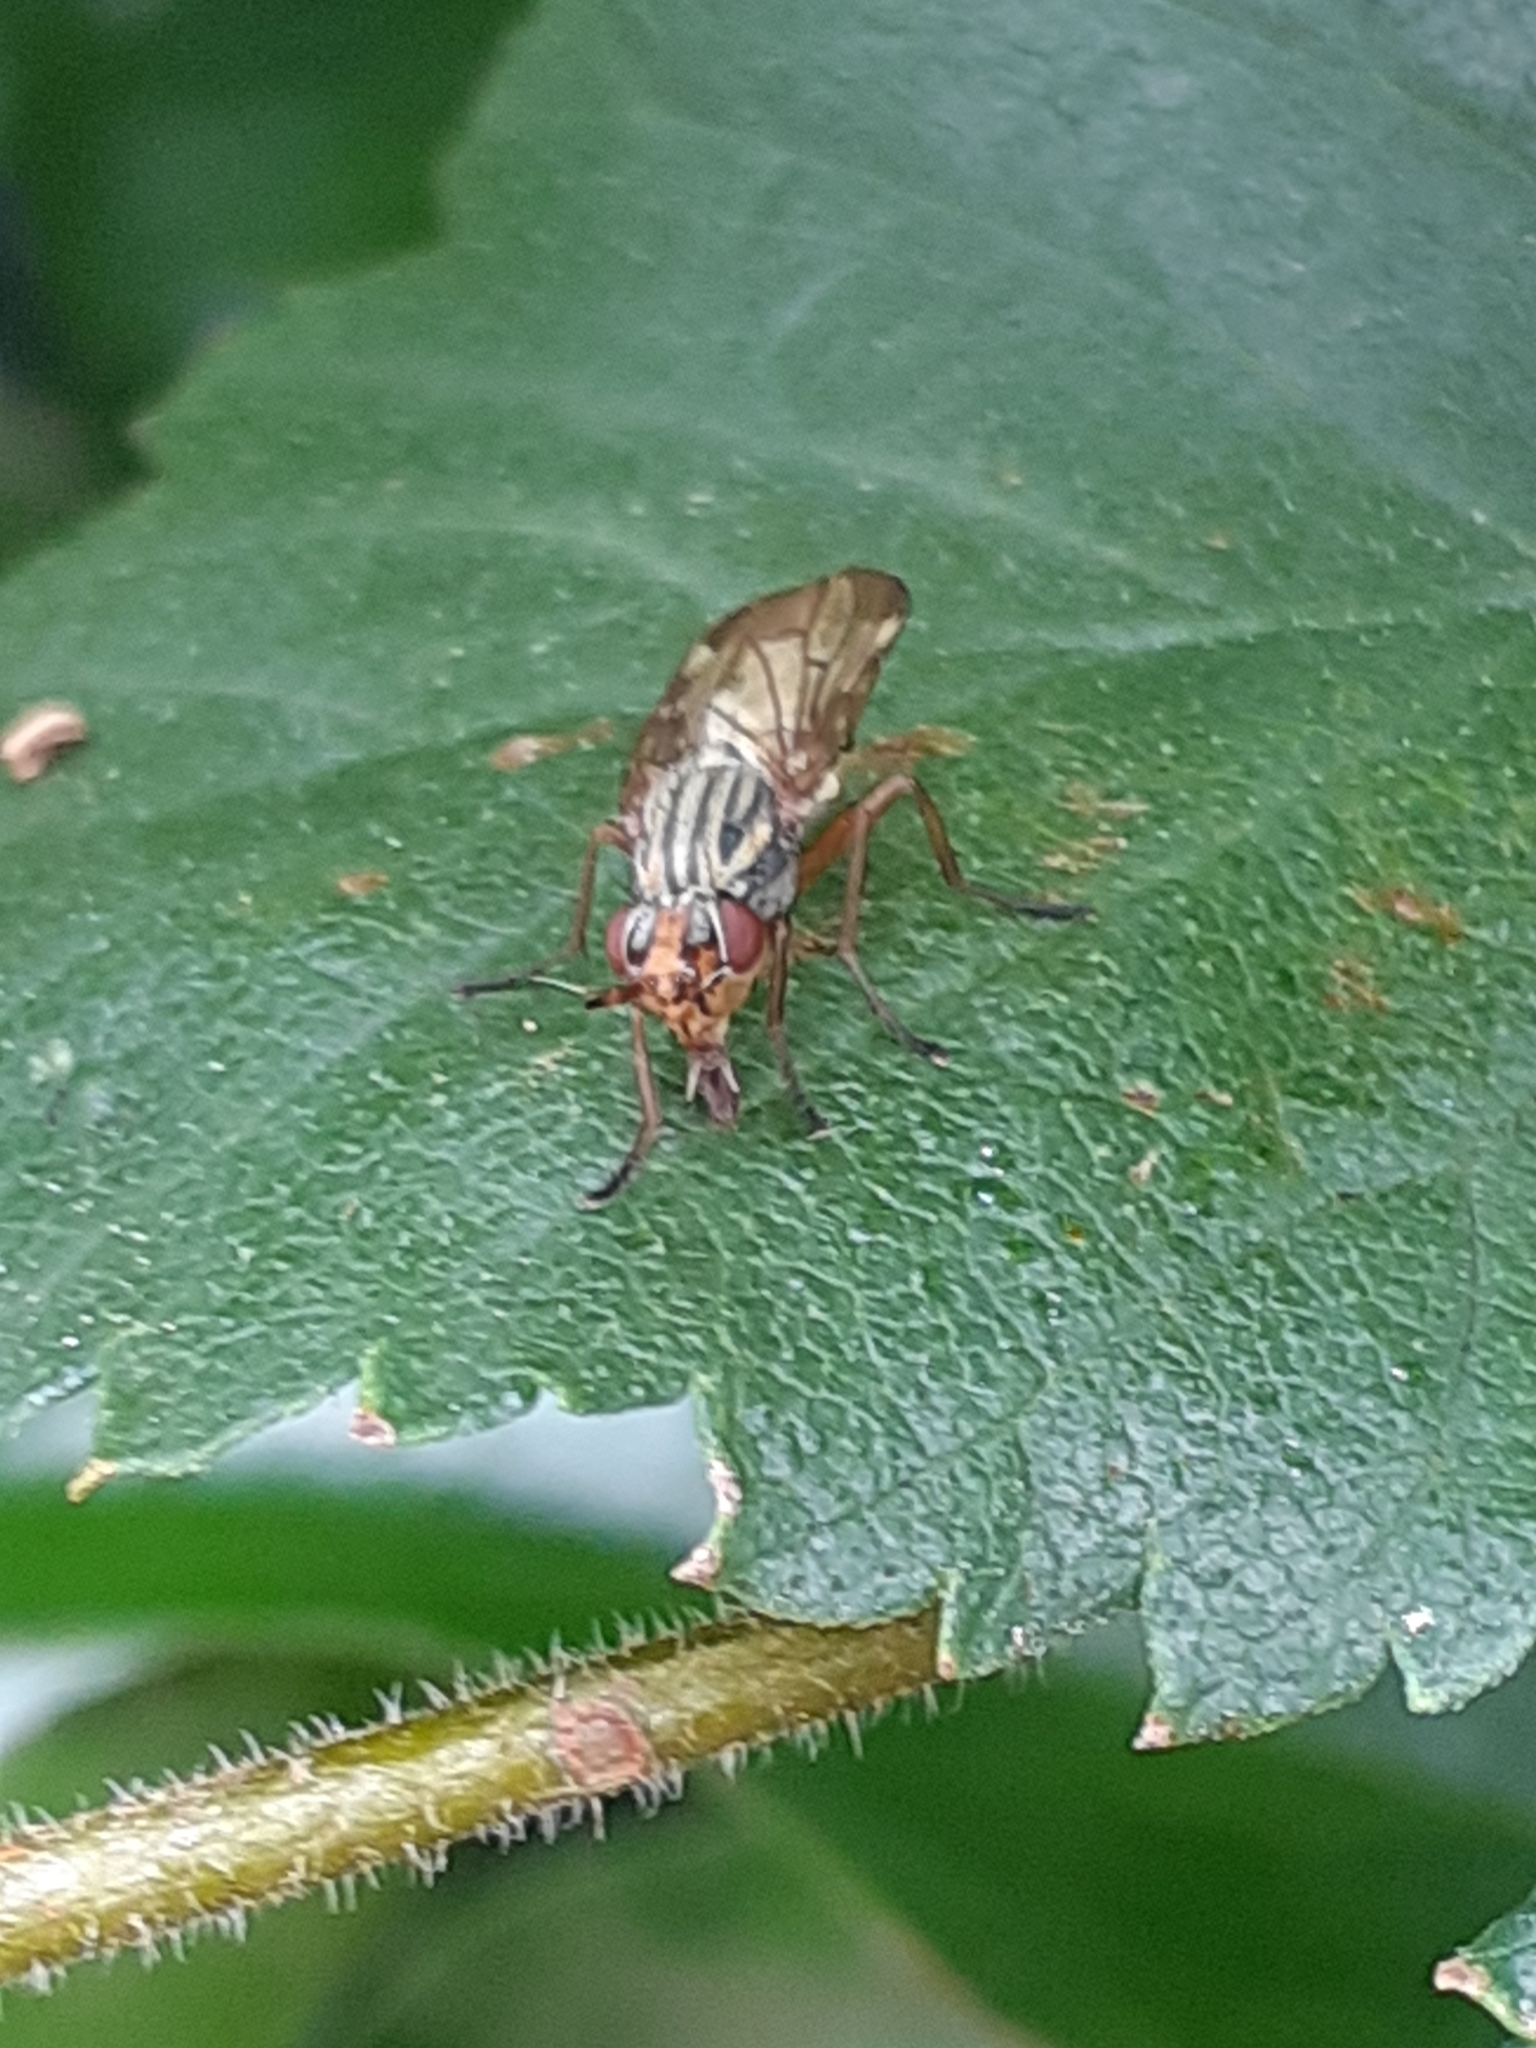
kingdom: Animalia
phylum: Arthropoda
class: Insecta
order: Diptera
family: Ulidiidae
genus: Dorycera
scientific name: Dorycera aquatica
